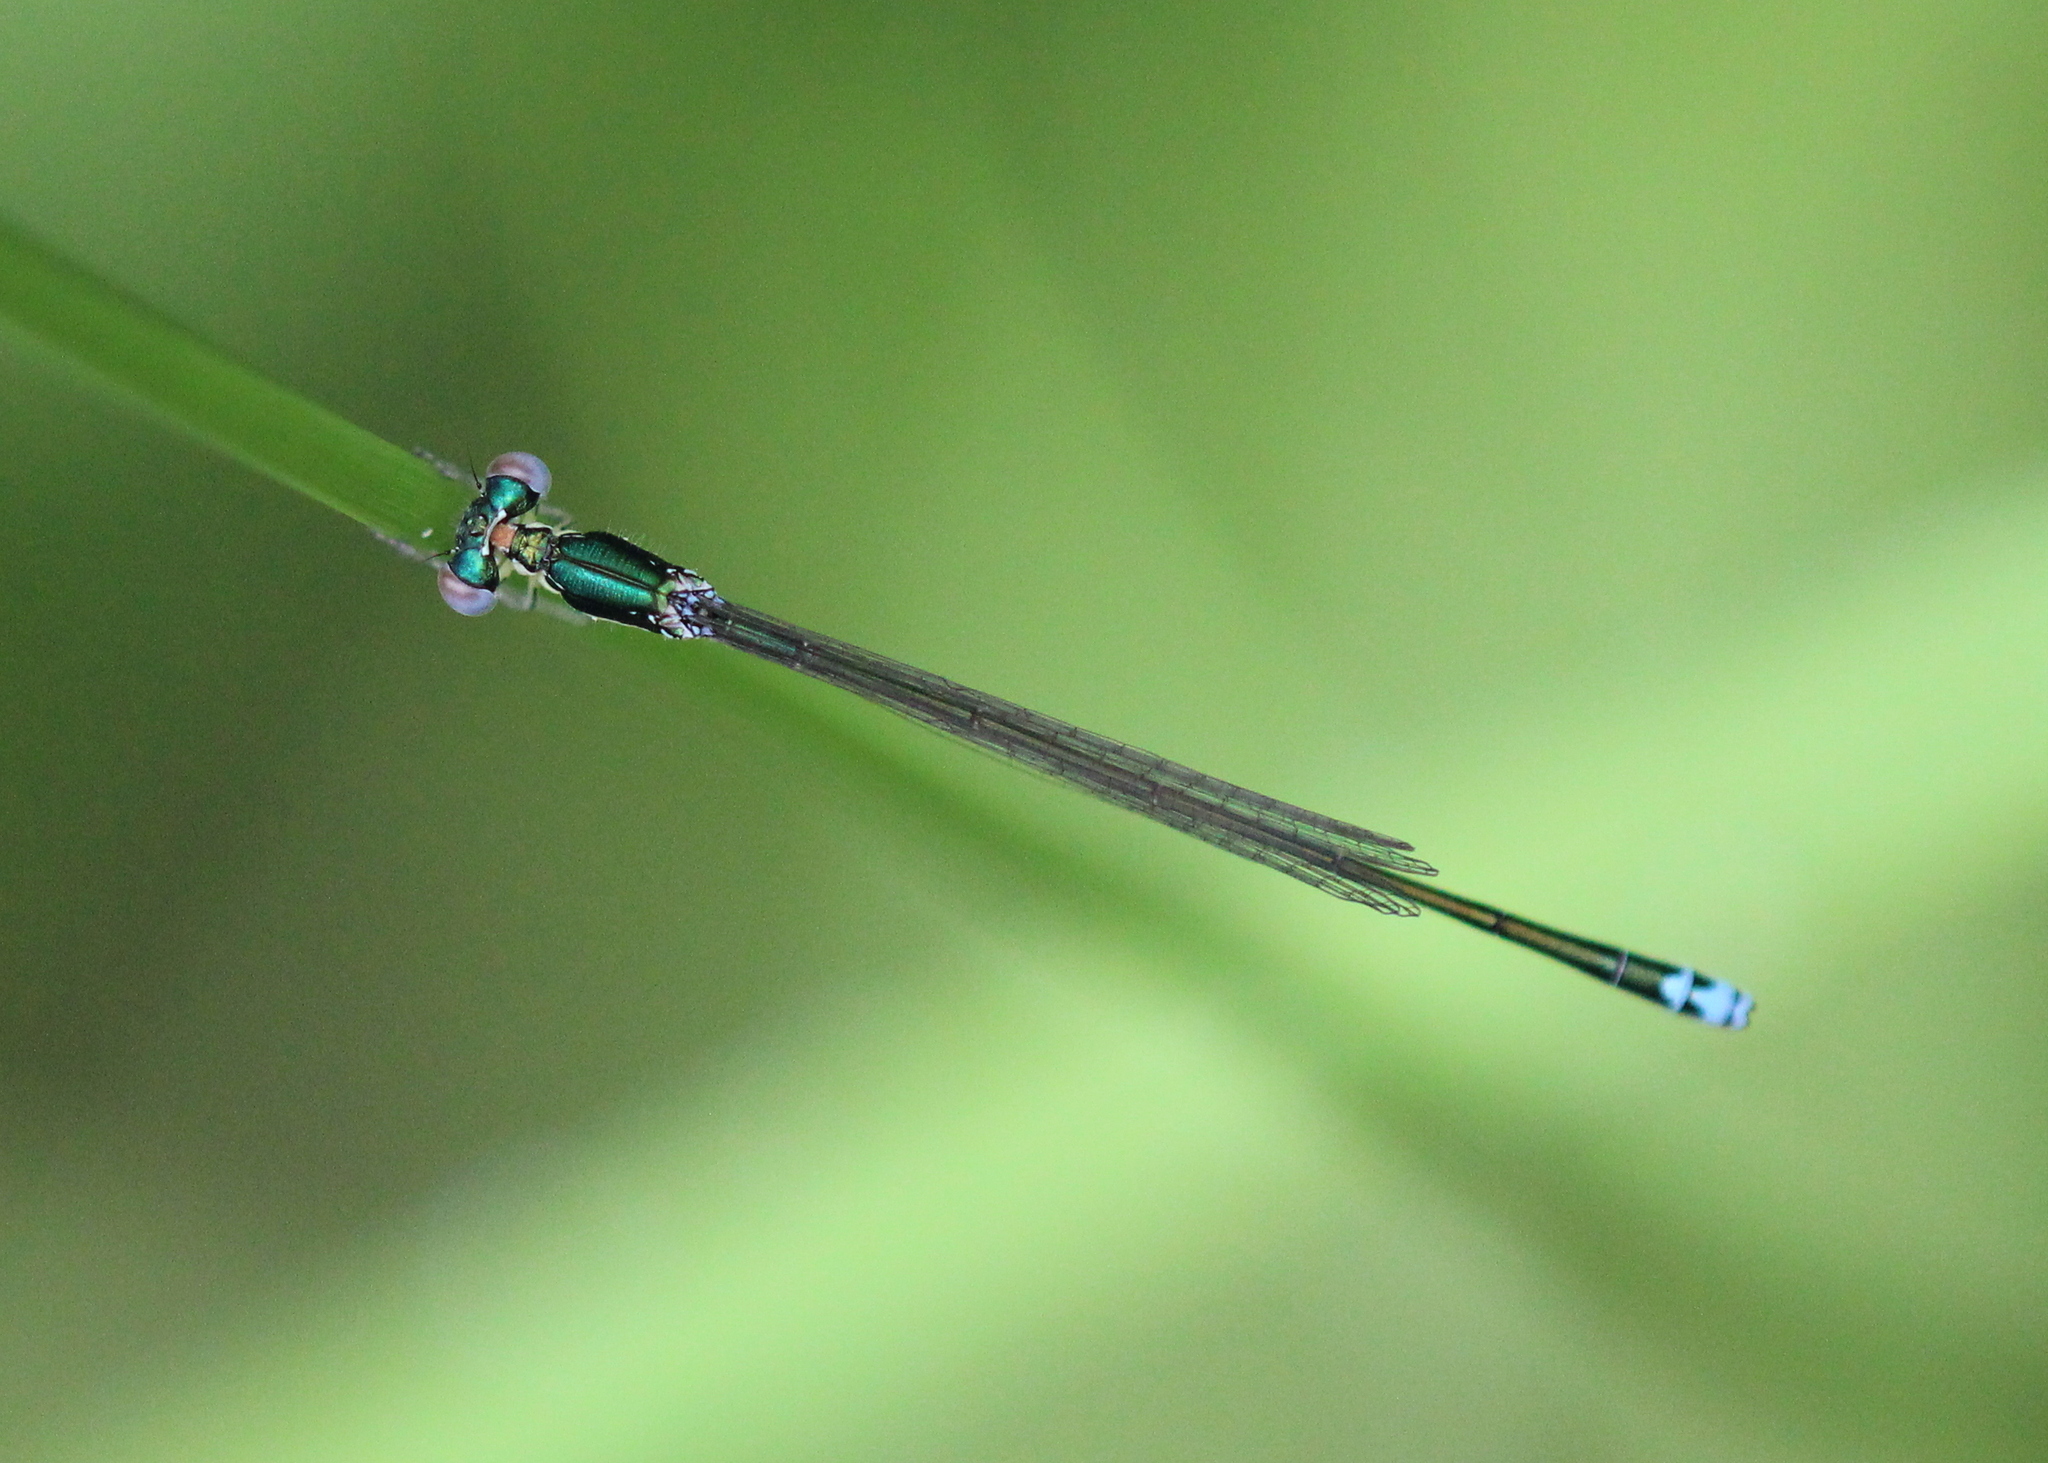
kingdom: Animalia
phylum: Arthropoda
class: Insecta
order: Odonata
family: Coenagrionidae
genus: Nehalennia
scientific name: Nehalennia irene
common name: Sedge sprite
